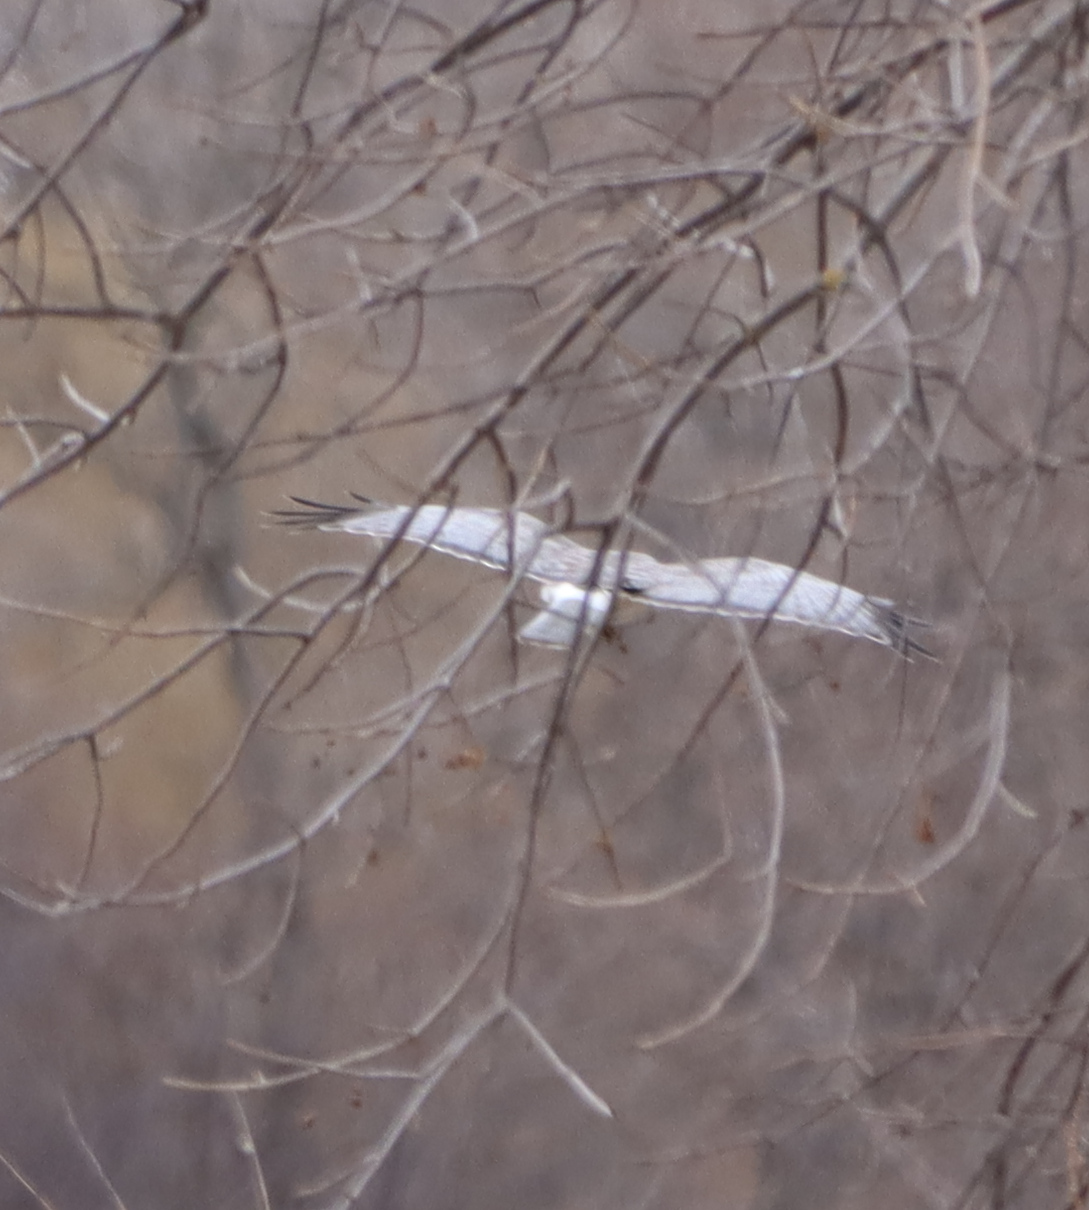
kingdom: Animalia
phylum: Chordata
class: Aves
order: Accipitriformes
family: Accipitridae
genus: Circus
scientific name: Circus cyaneus
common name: Hen harrier
